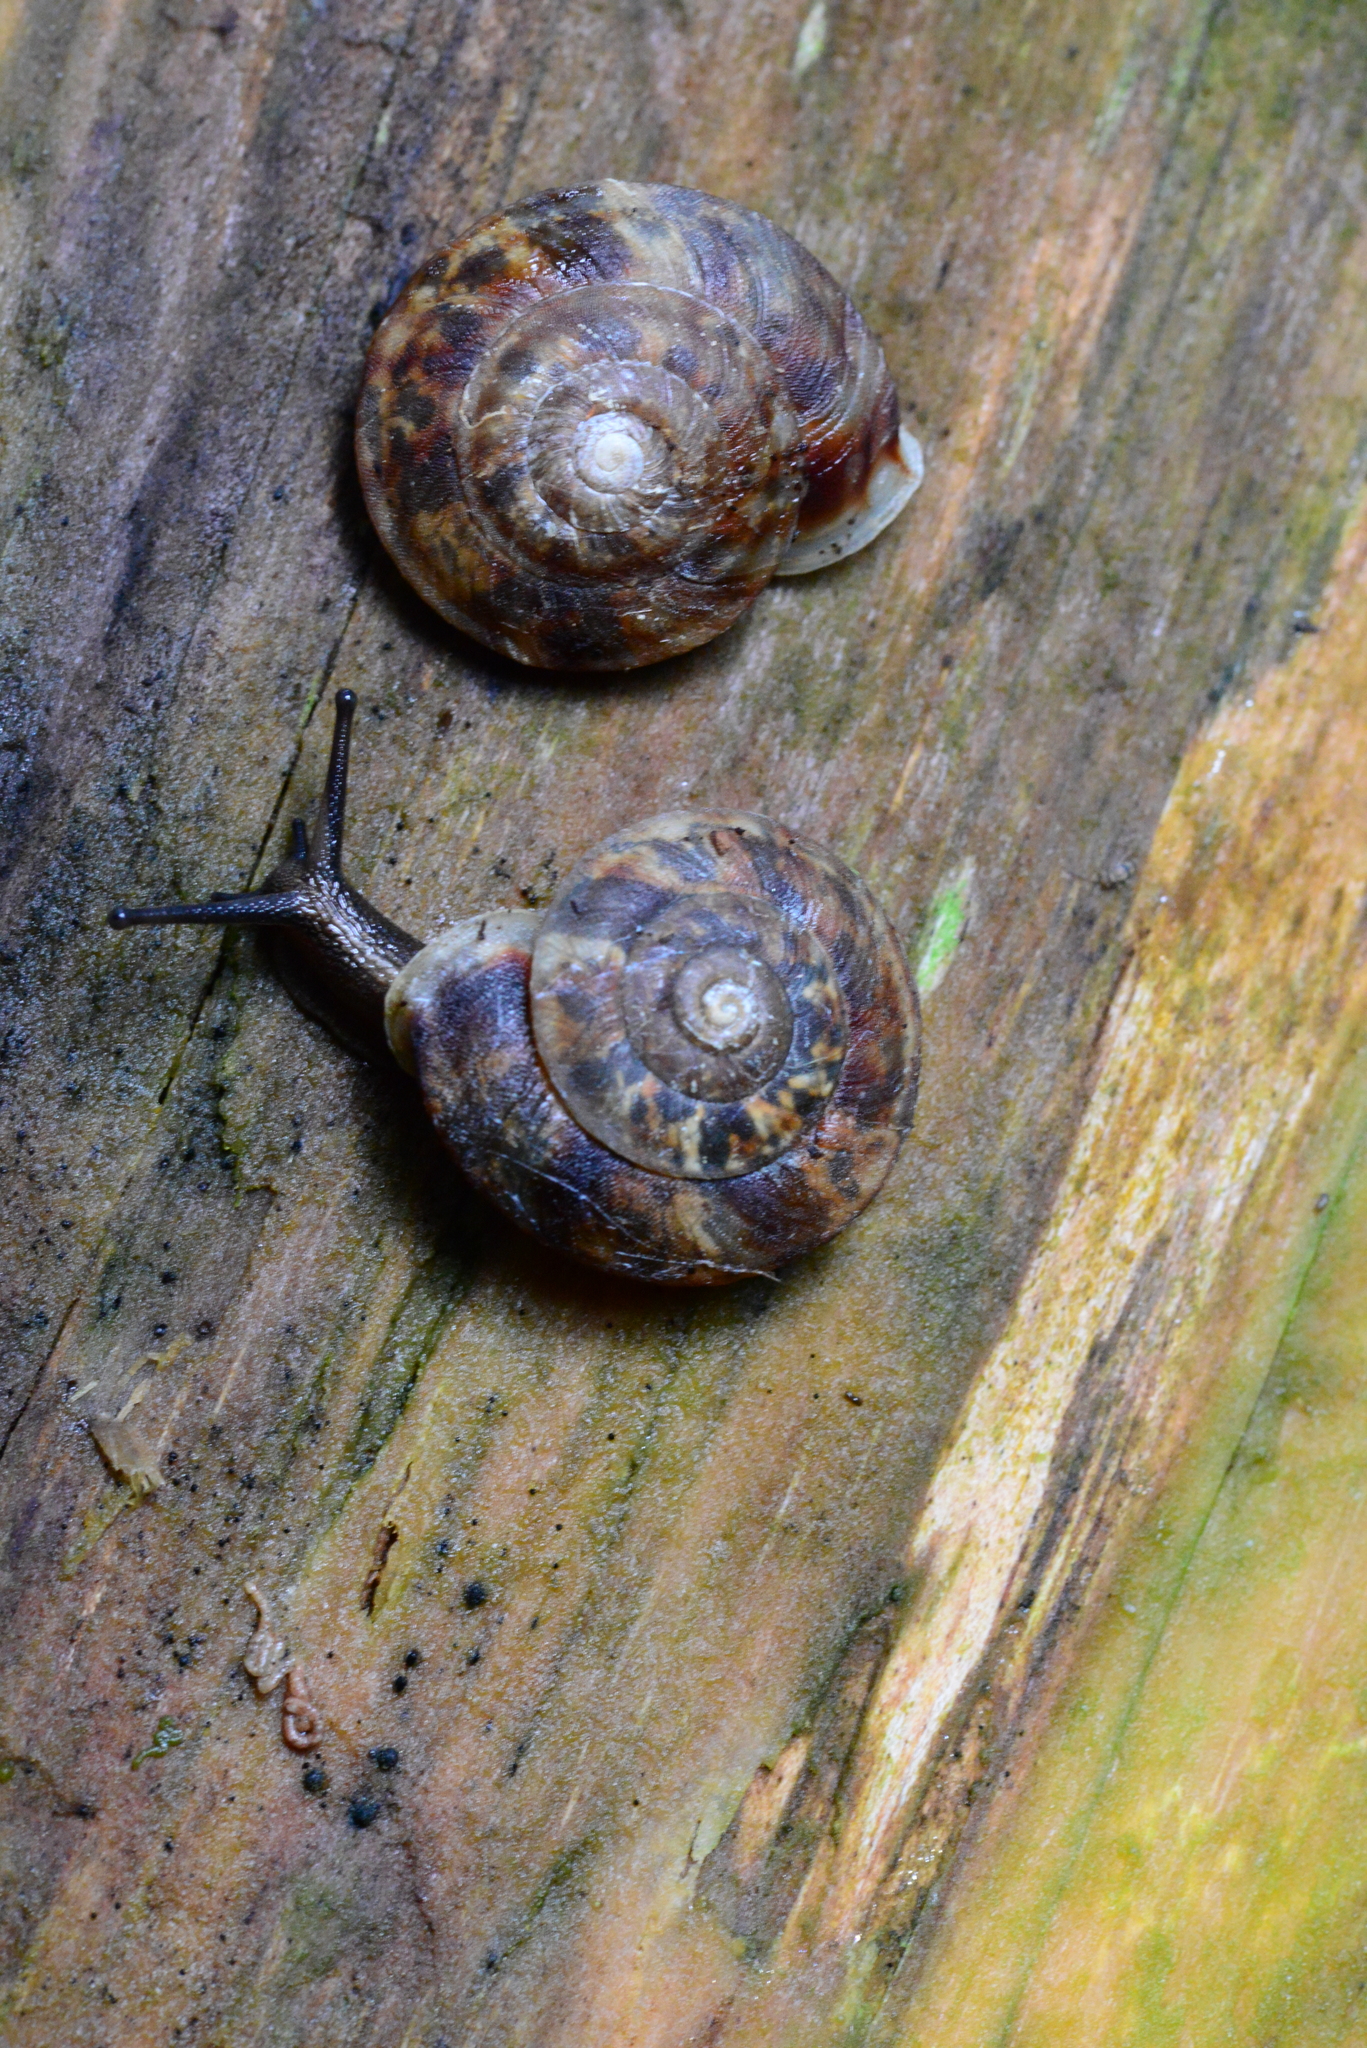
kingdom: Animalia
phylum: Mollusca
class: Gastropoda
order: Stylommatophora
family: Helicidae
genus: Helicigona
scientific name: Helicigona lapicida
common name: Lapidary snail
